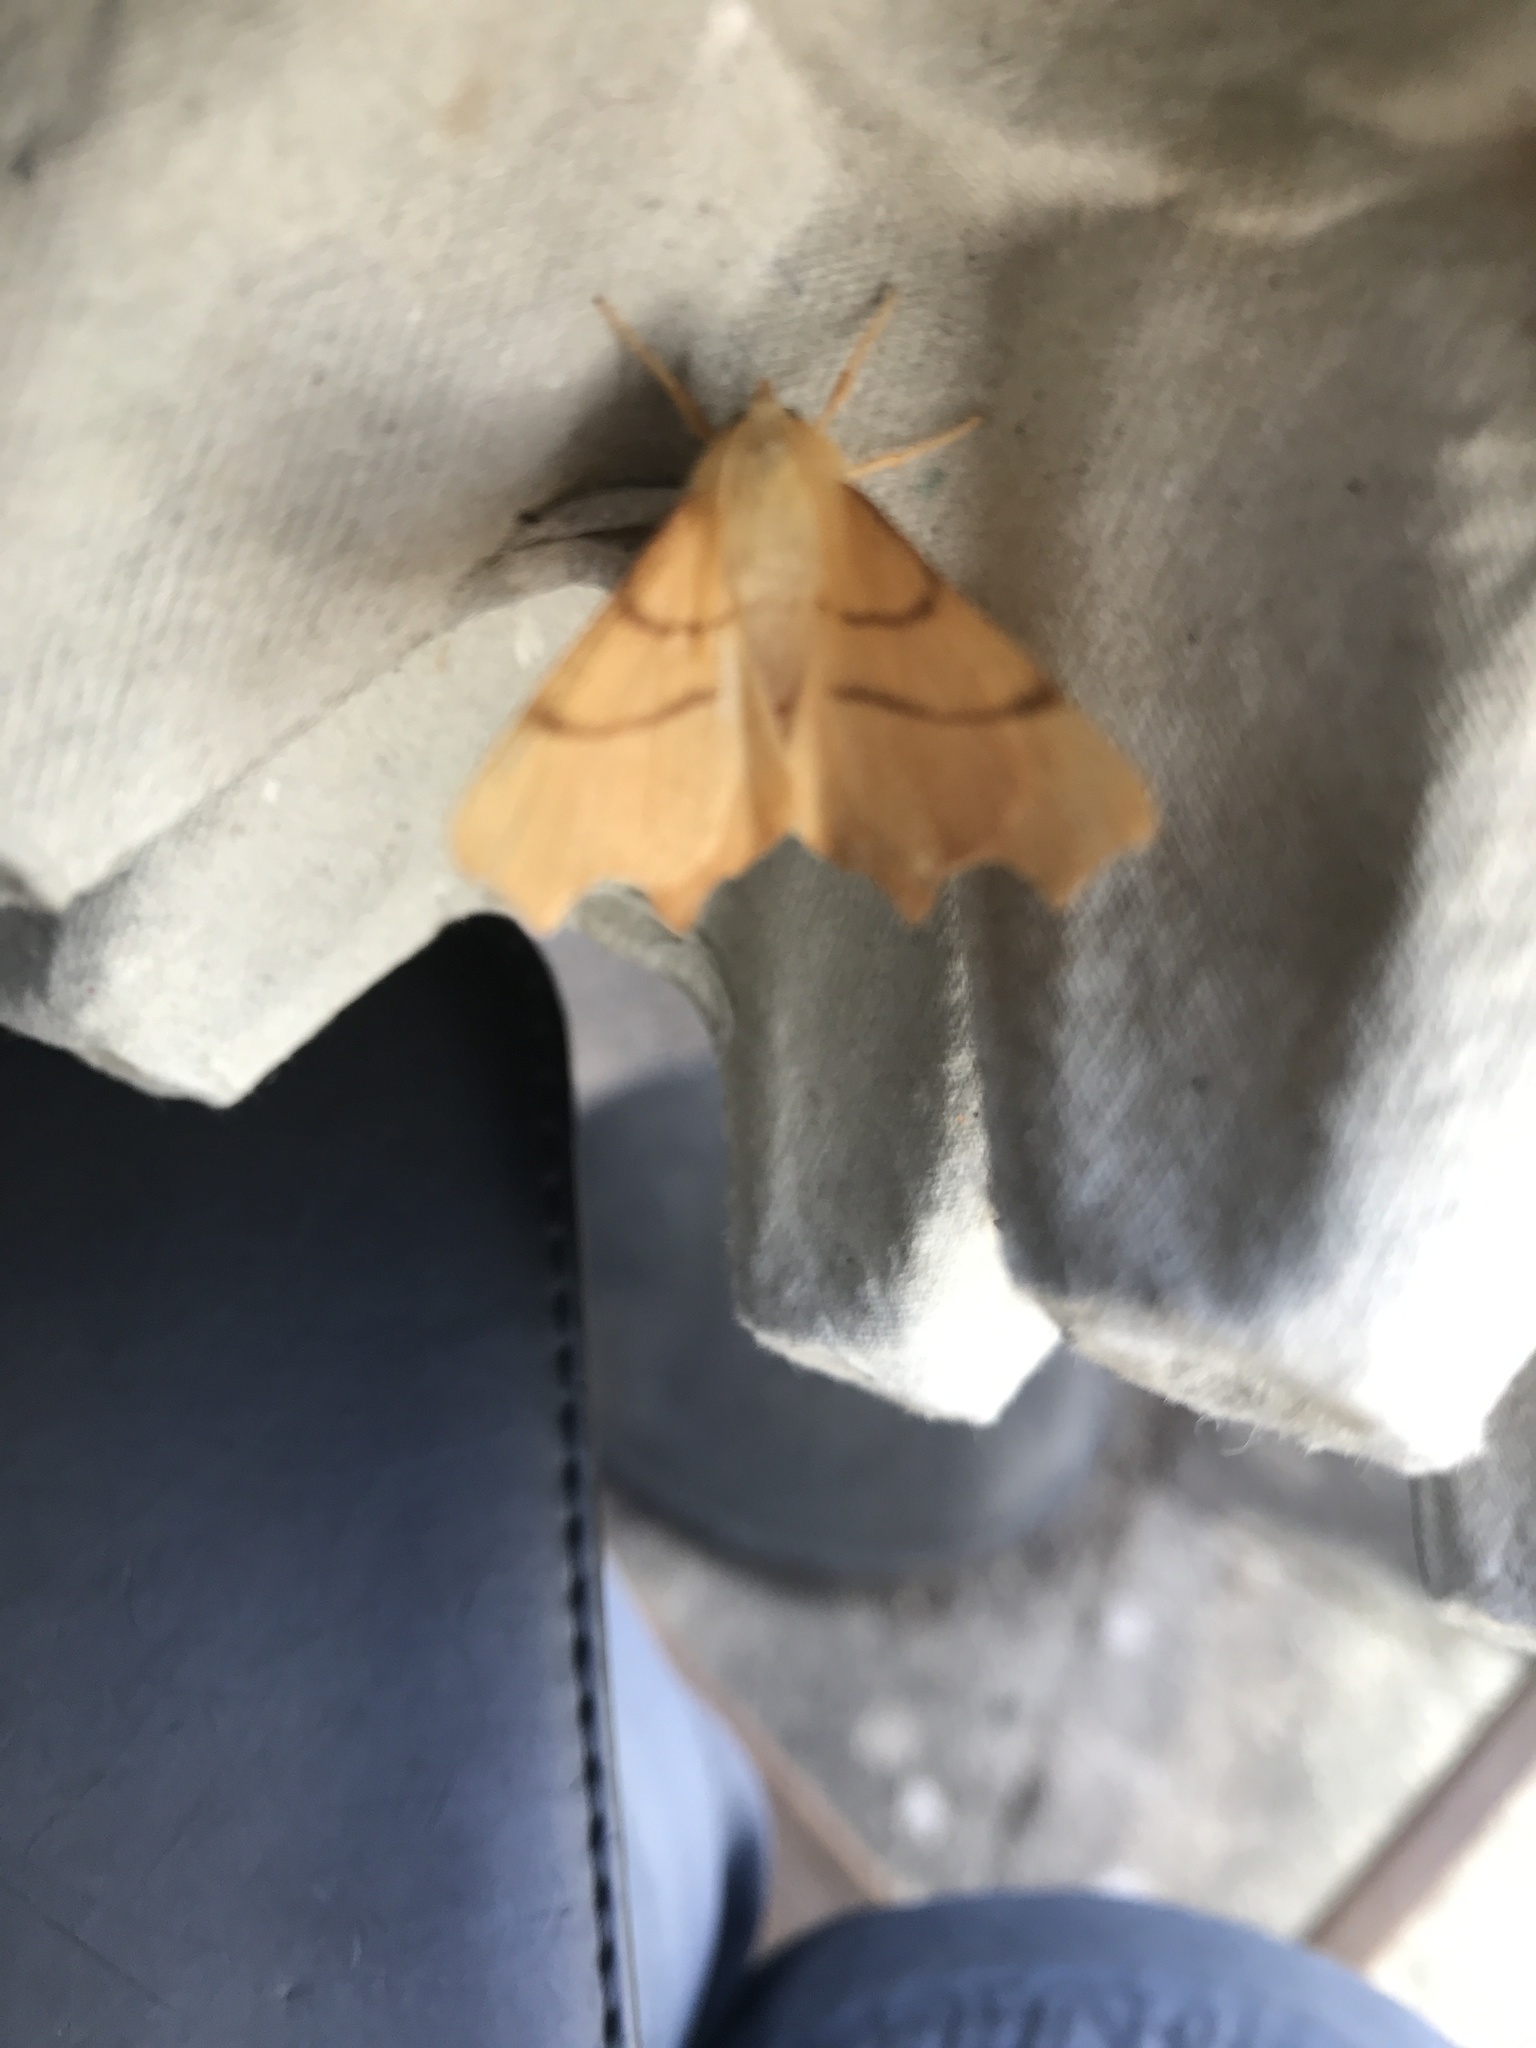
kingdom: Animalia
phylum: Arthropoda
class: Insecta
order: Lepidoptera
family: Geometridae
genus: Ennomos
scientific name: Ennomos erosaria
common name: September thorn
